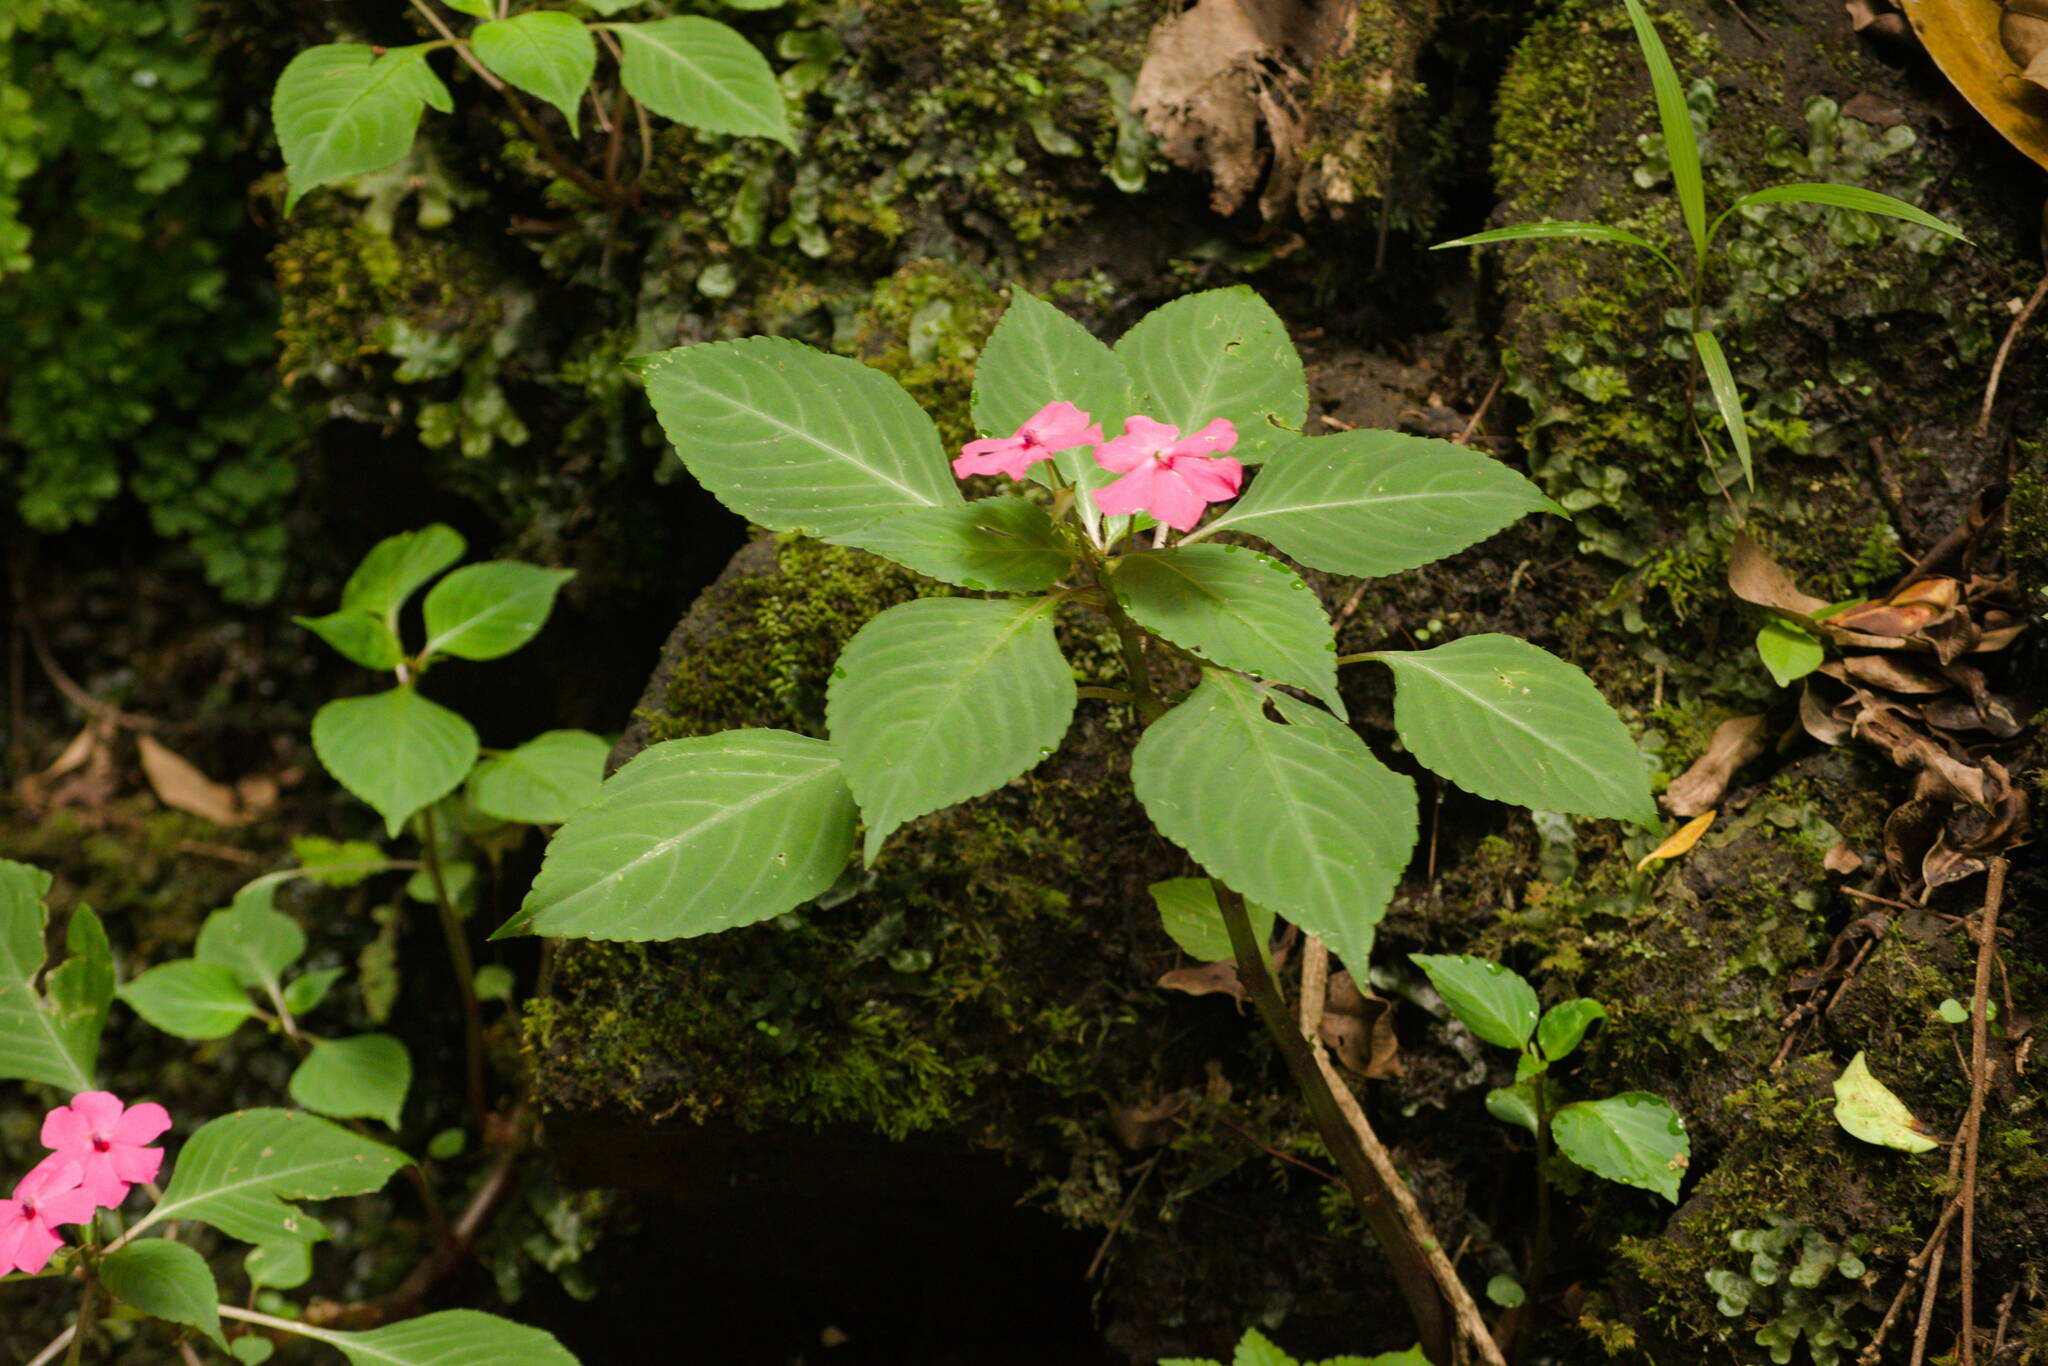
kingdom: Plantae
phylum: Tracheophyta
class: Magnoliopsida
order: Ericales
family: Balsaminaceae
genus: Impatiens
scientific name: Impatiens walleriana
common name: Buzzy lizzy
